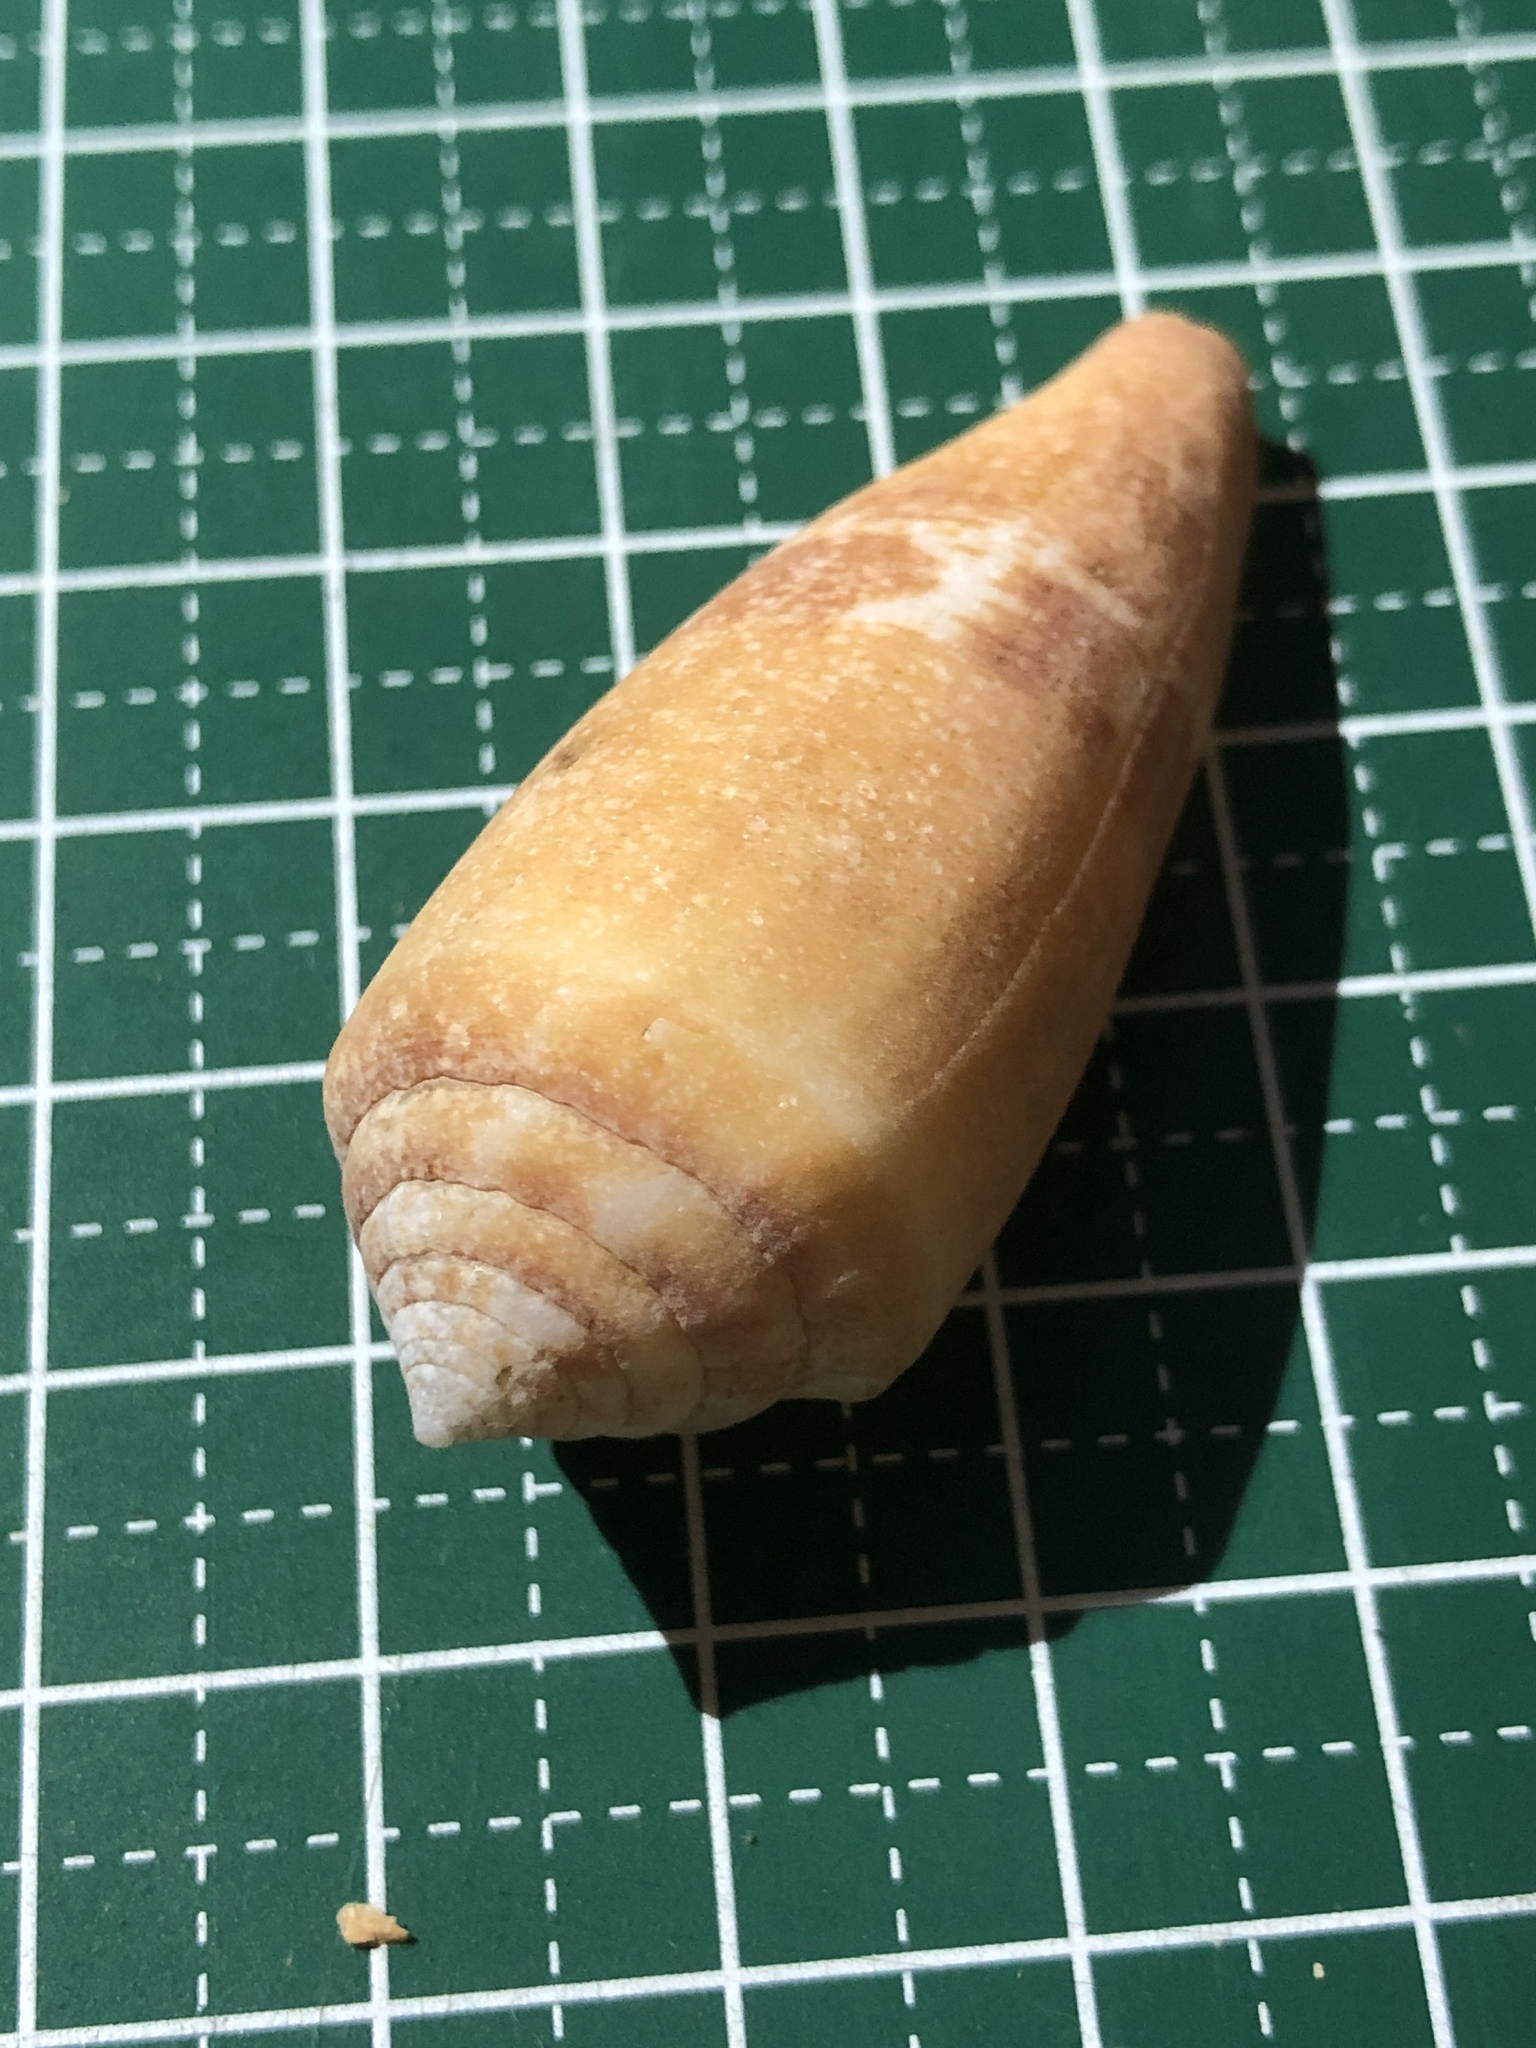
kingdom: Animalia
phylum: Mollusca
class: Gastropoda
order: Neogastropoda
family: Conidae
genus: Conus
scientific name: Conus coccineus
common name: Berry cone
